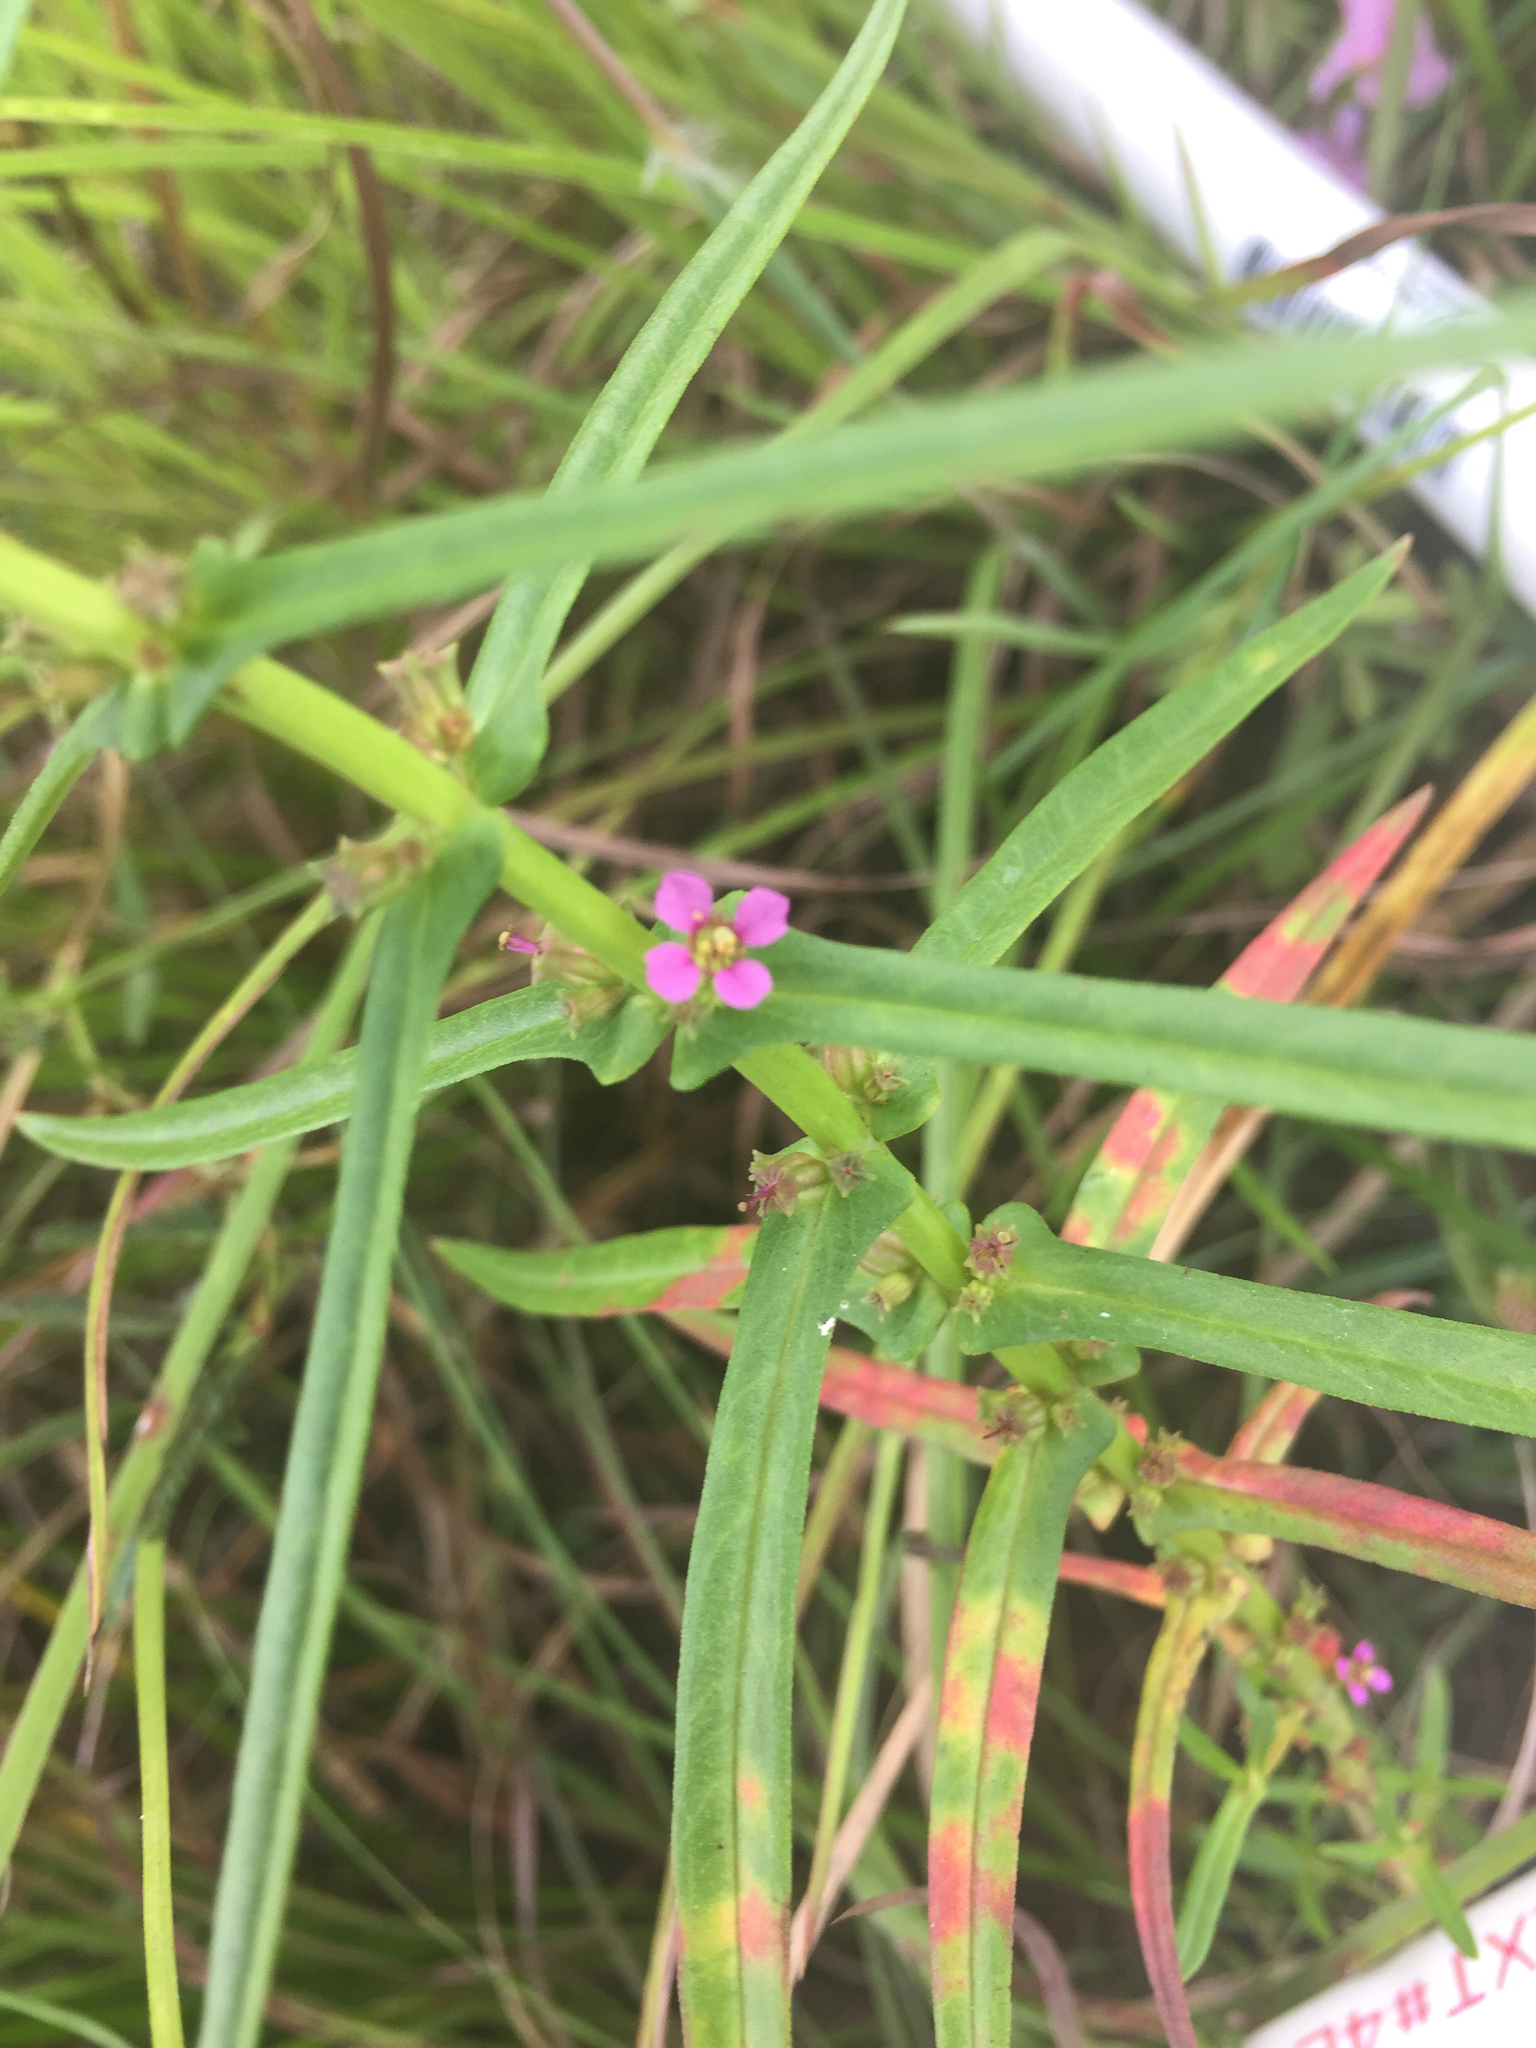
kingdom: Plantae
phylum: Tracheophyta
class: Magnoliopsida
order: Myrtales
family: Lythraceae
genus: Ammannia
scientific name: Ammannia coccinea
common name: Valley redstem
